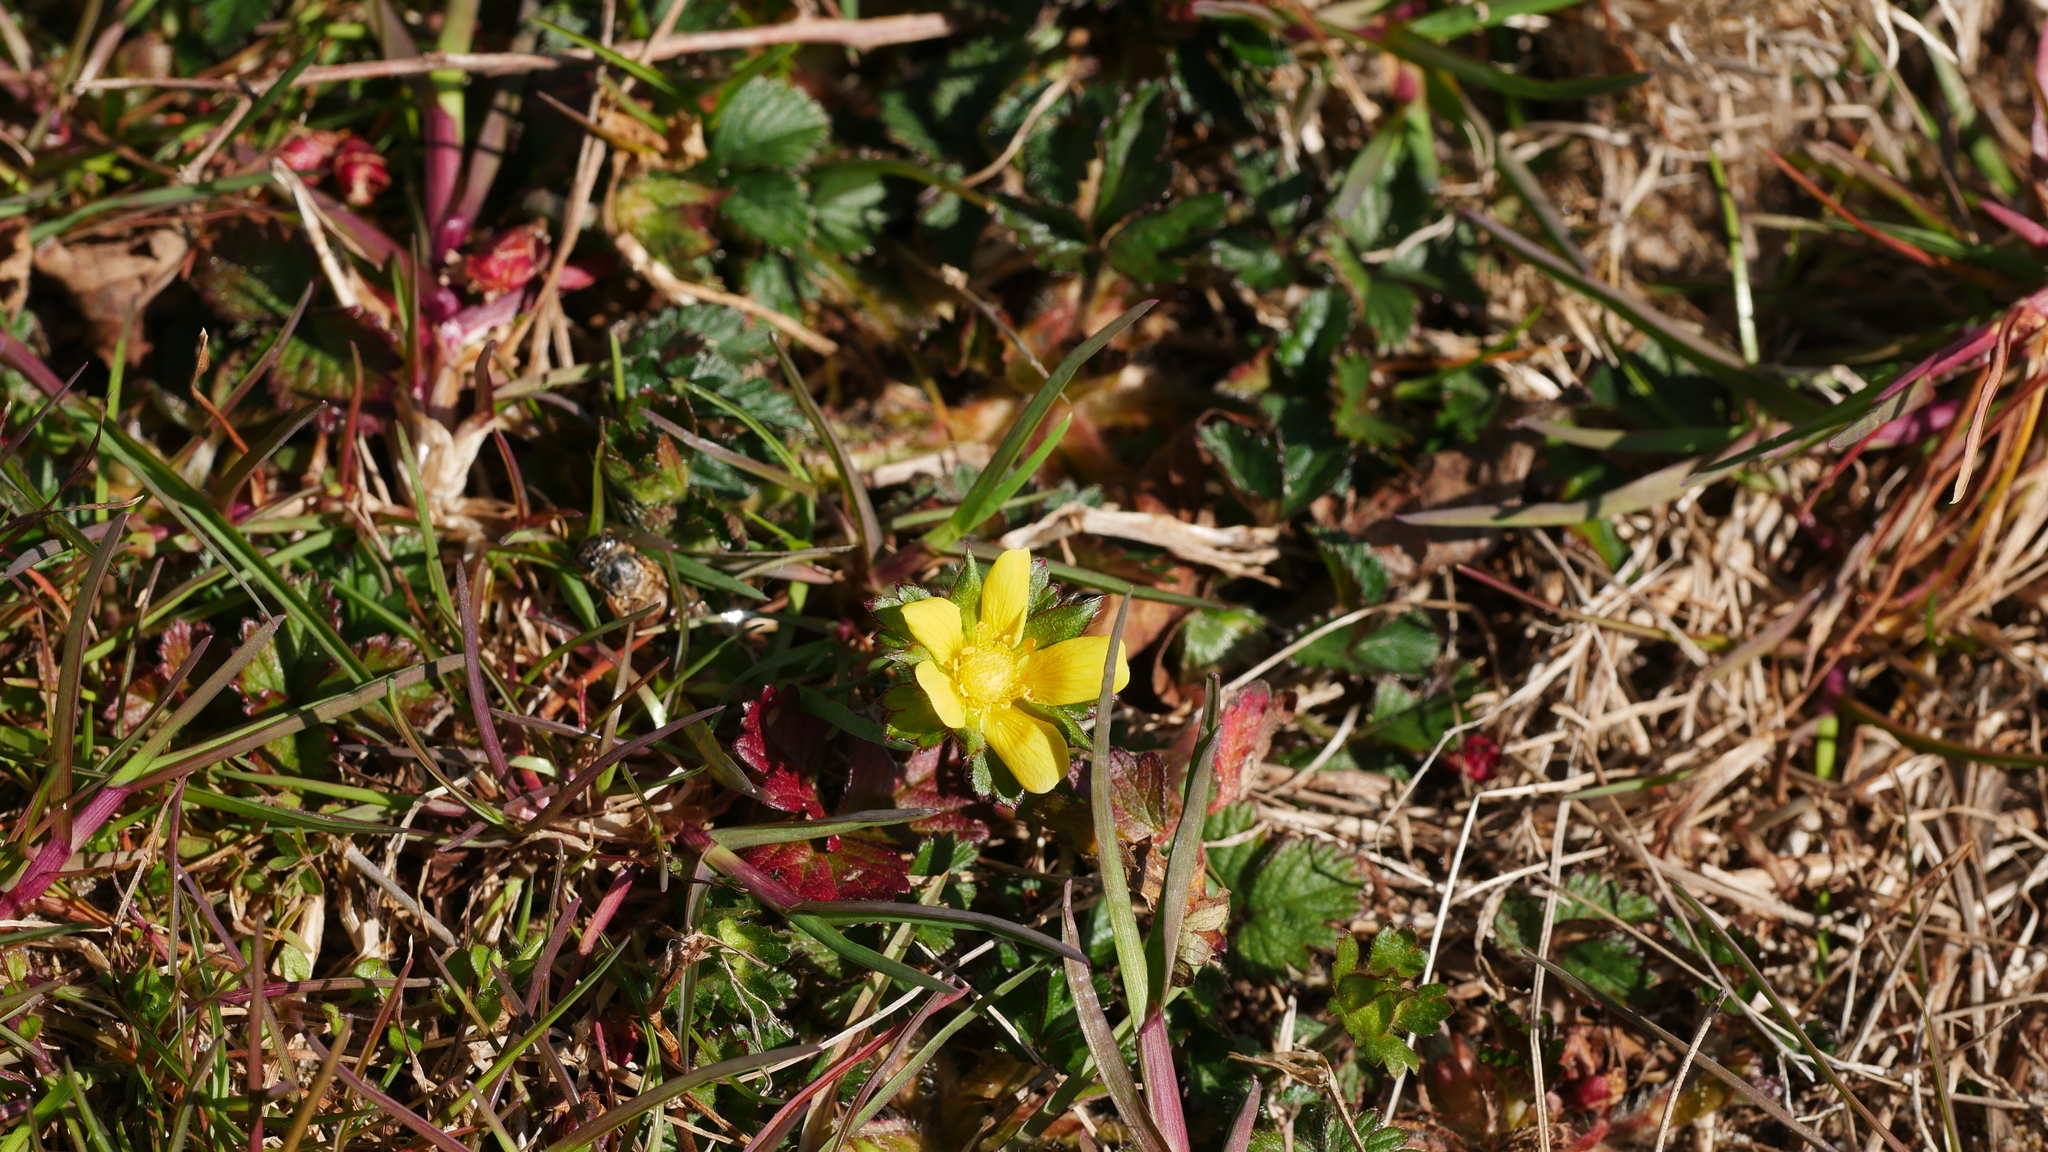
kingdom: Plantae
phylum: Tracheophyta
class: Magnoliopsida
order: Rosales
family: Rosaceae
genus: Potentilla
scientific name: Potentilla indica
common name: Yellow-flowered strawberry
